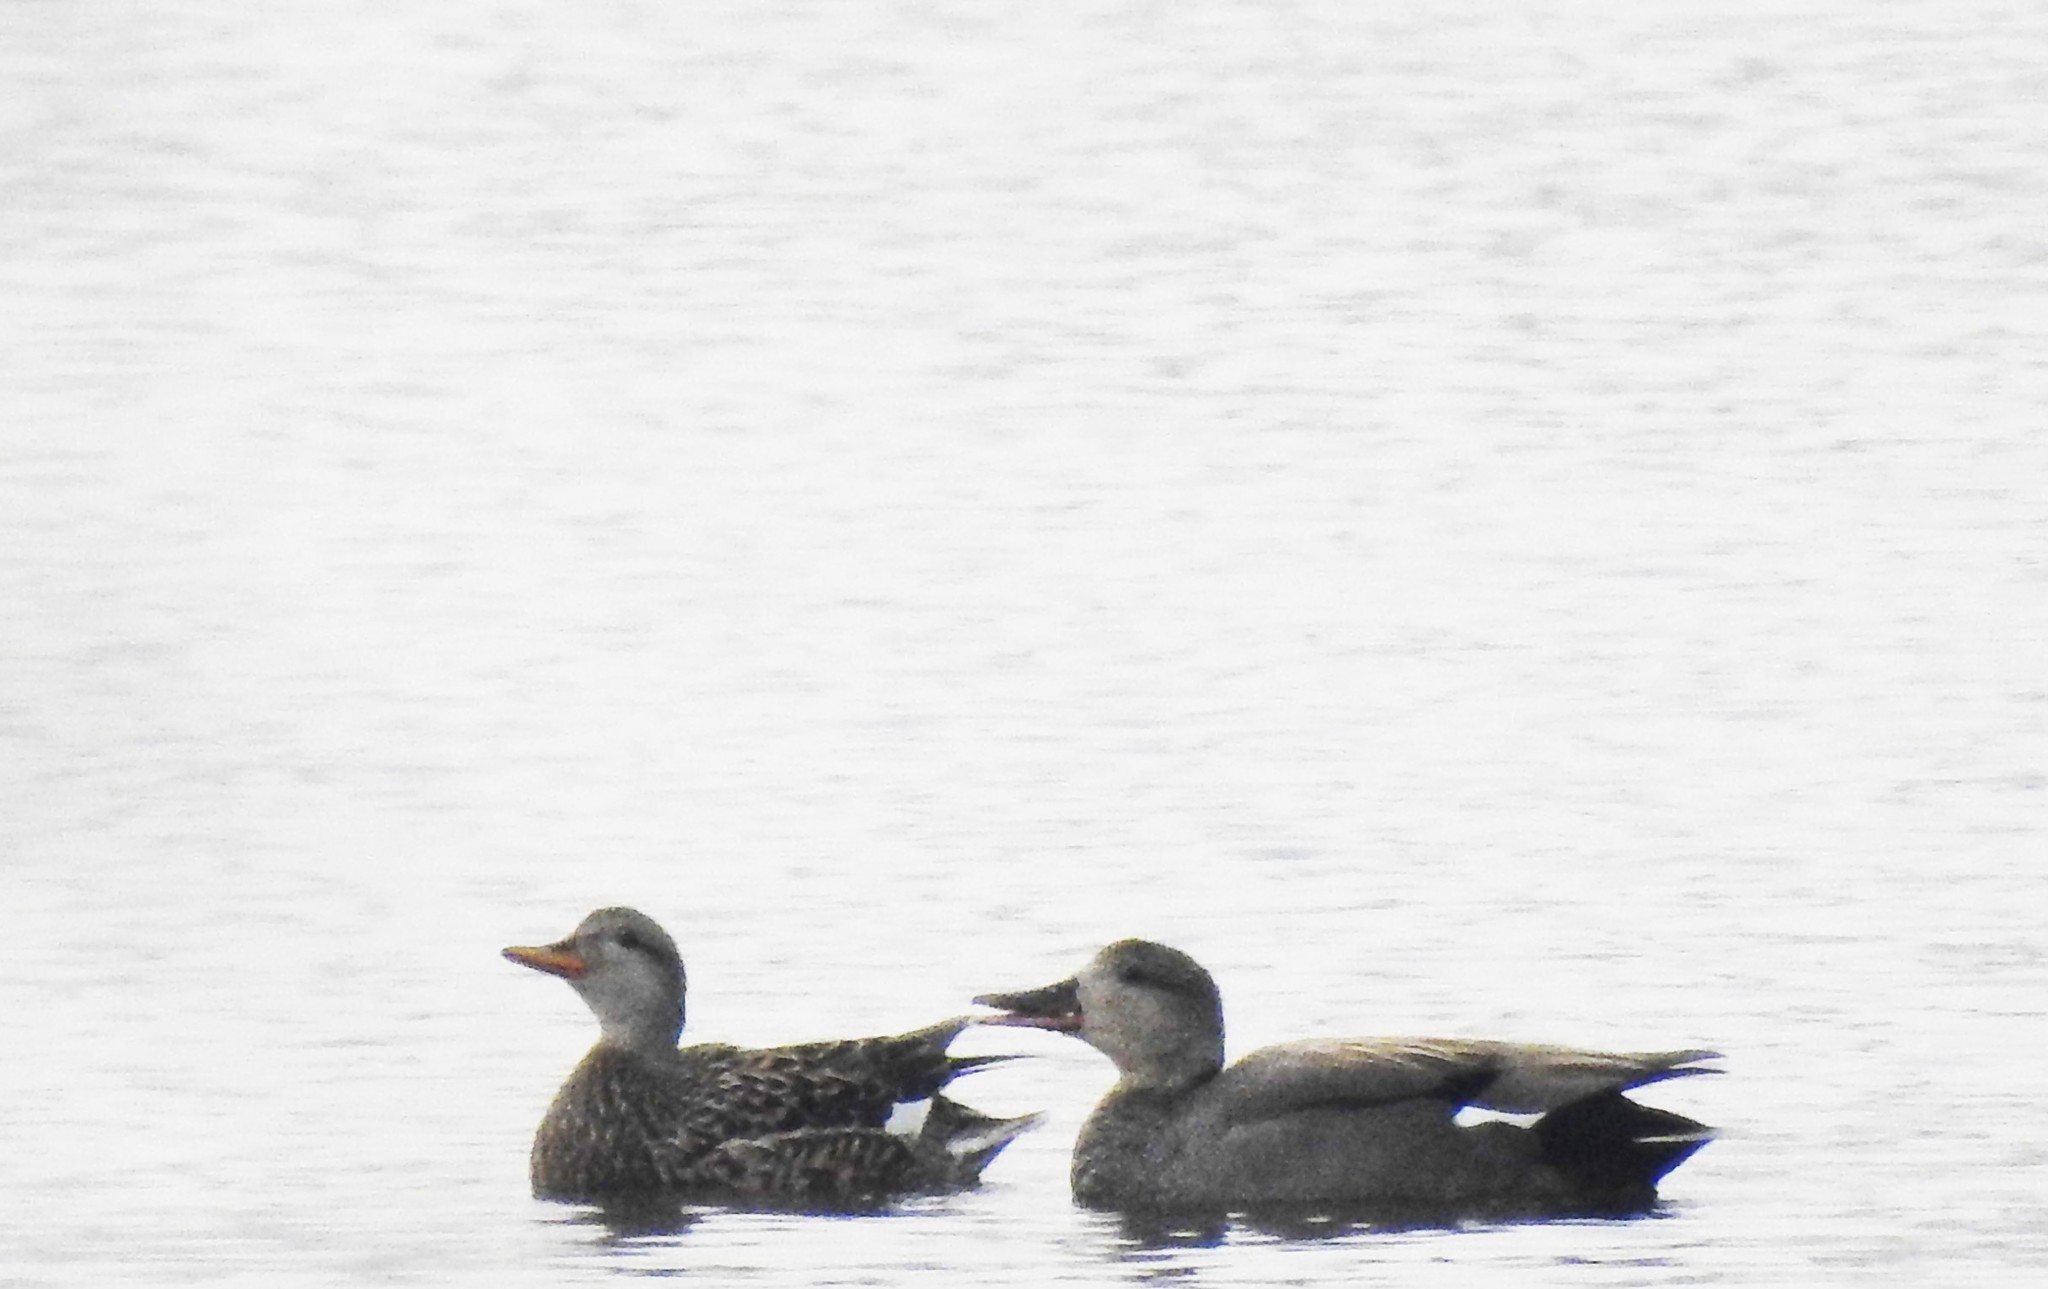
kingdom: Animalia
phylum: Chordata
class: Aves
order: Anseriformes
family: Anatidae
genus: Mareca
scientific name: Mareca strepera
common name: Gadwall
